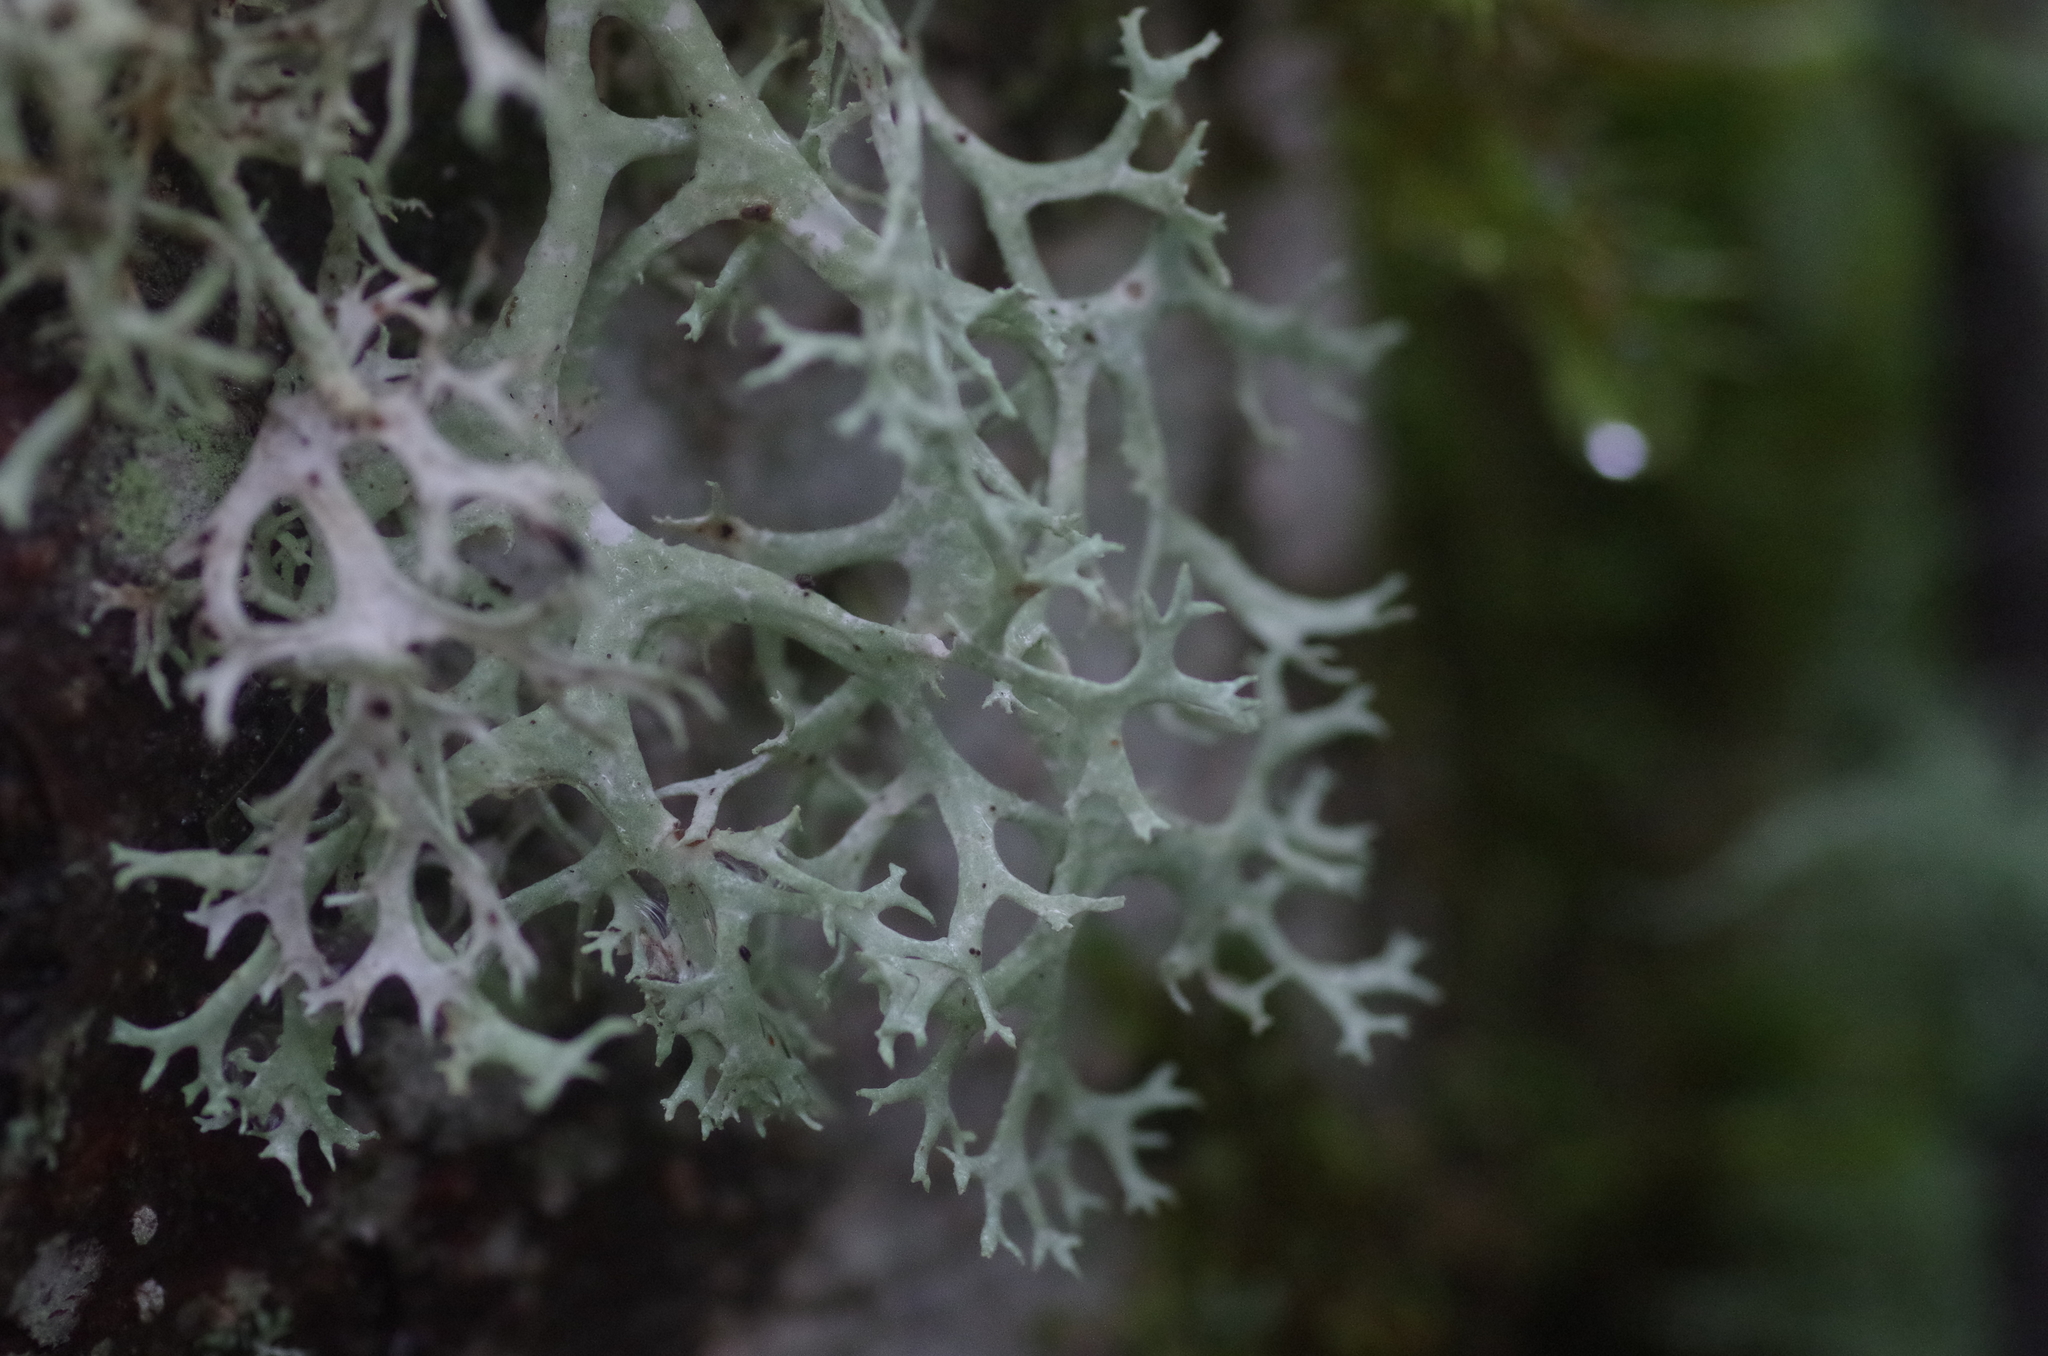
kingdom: Fungi
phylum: Ascomycota
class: Lecanoromycetes
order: Lecanorales
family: Parmeliaceae
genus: Evernia
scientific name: Evernia prunastri
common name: Oak moss
